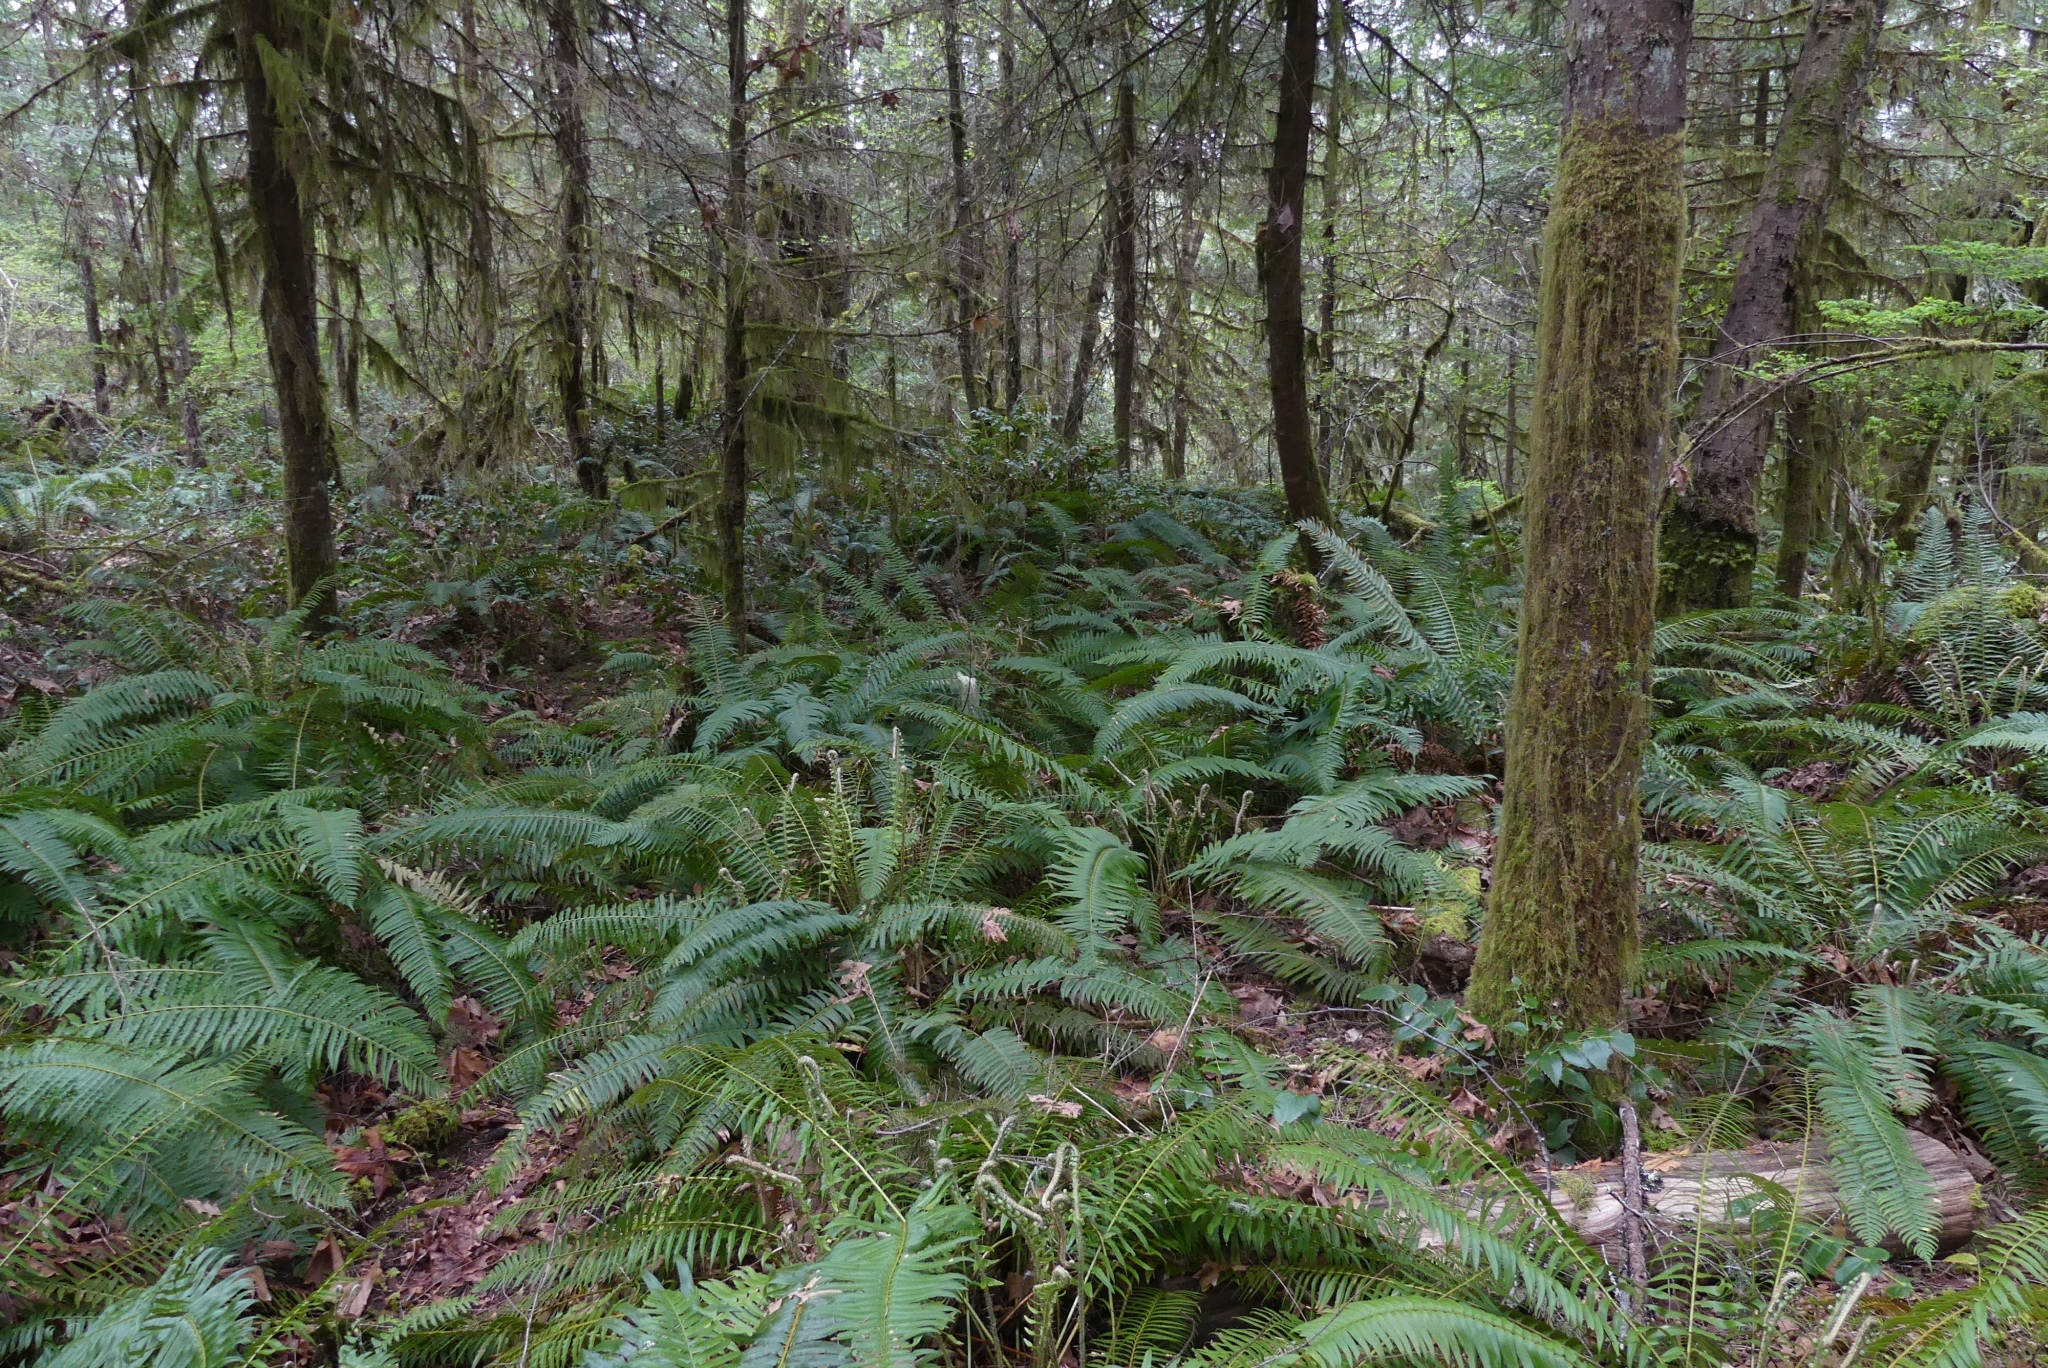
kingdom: Plantae
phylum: Tracheophyta
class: Polypodiopsida
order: Polypodiales
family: Dryopteridaceae
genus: Polystichum
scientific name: Polystichum munitum
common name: Western sword-fern
